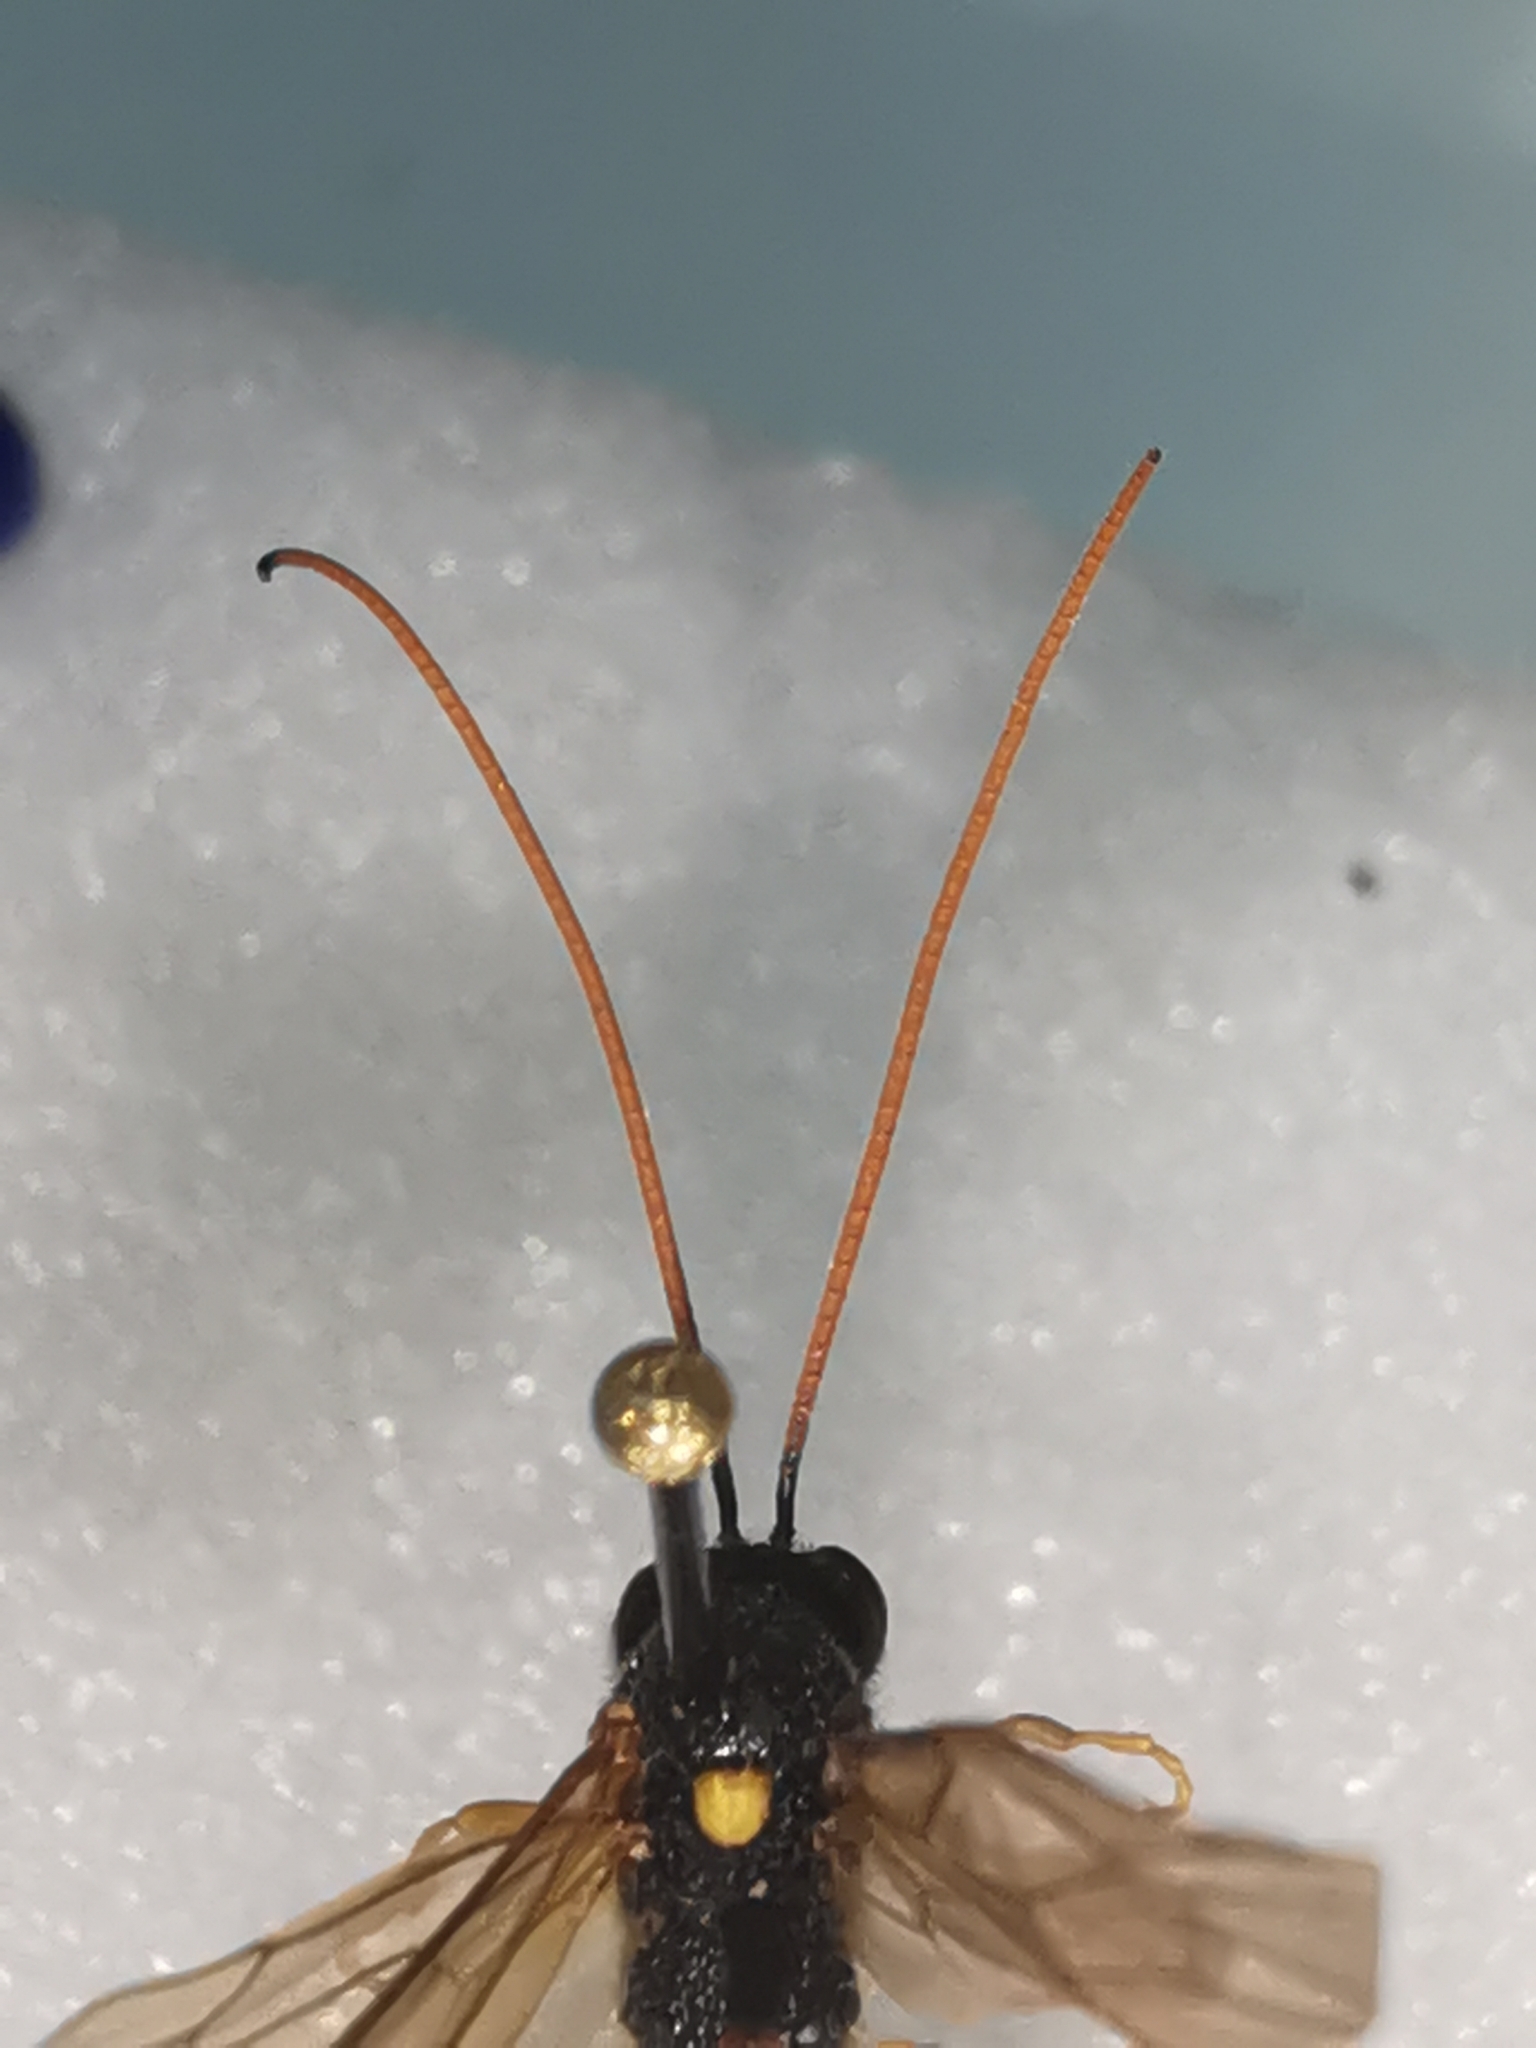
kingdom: Animalia
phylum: Arthropoda
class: Insecta
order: Hymenoptera
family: Ichneumonidae
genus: Therion
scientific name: Therion circumflexum
